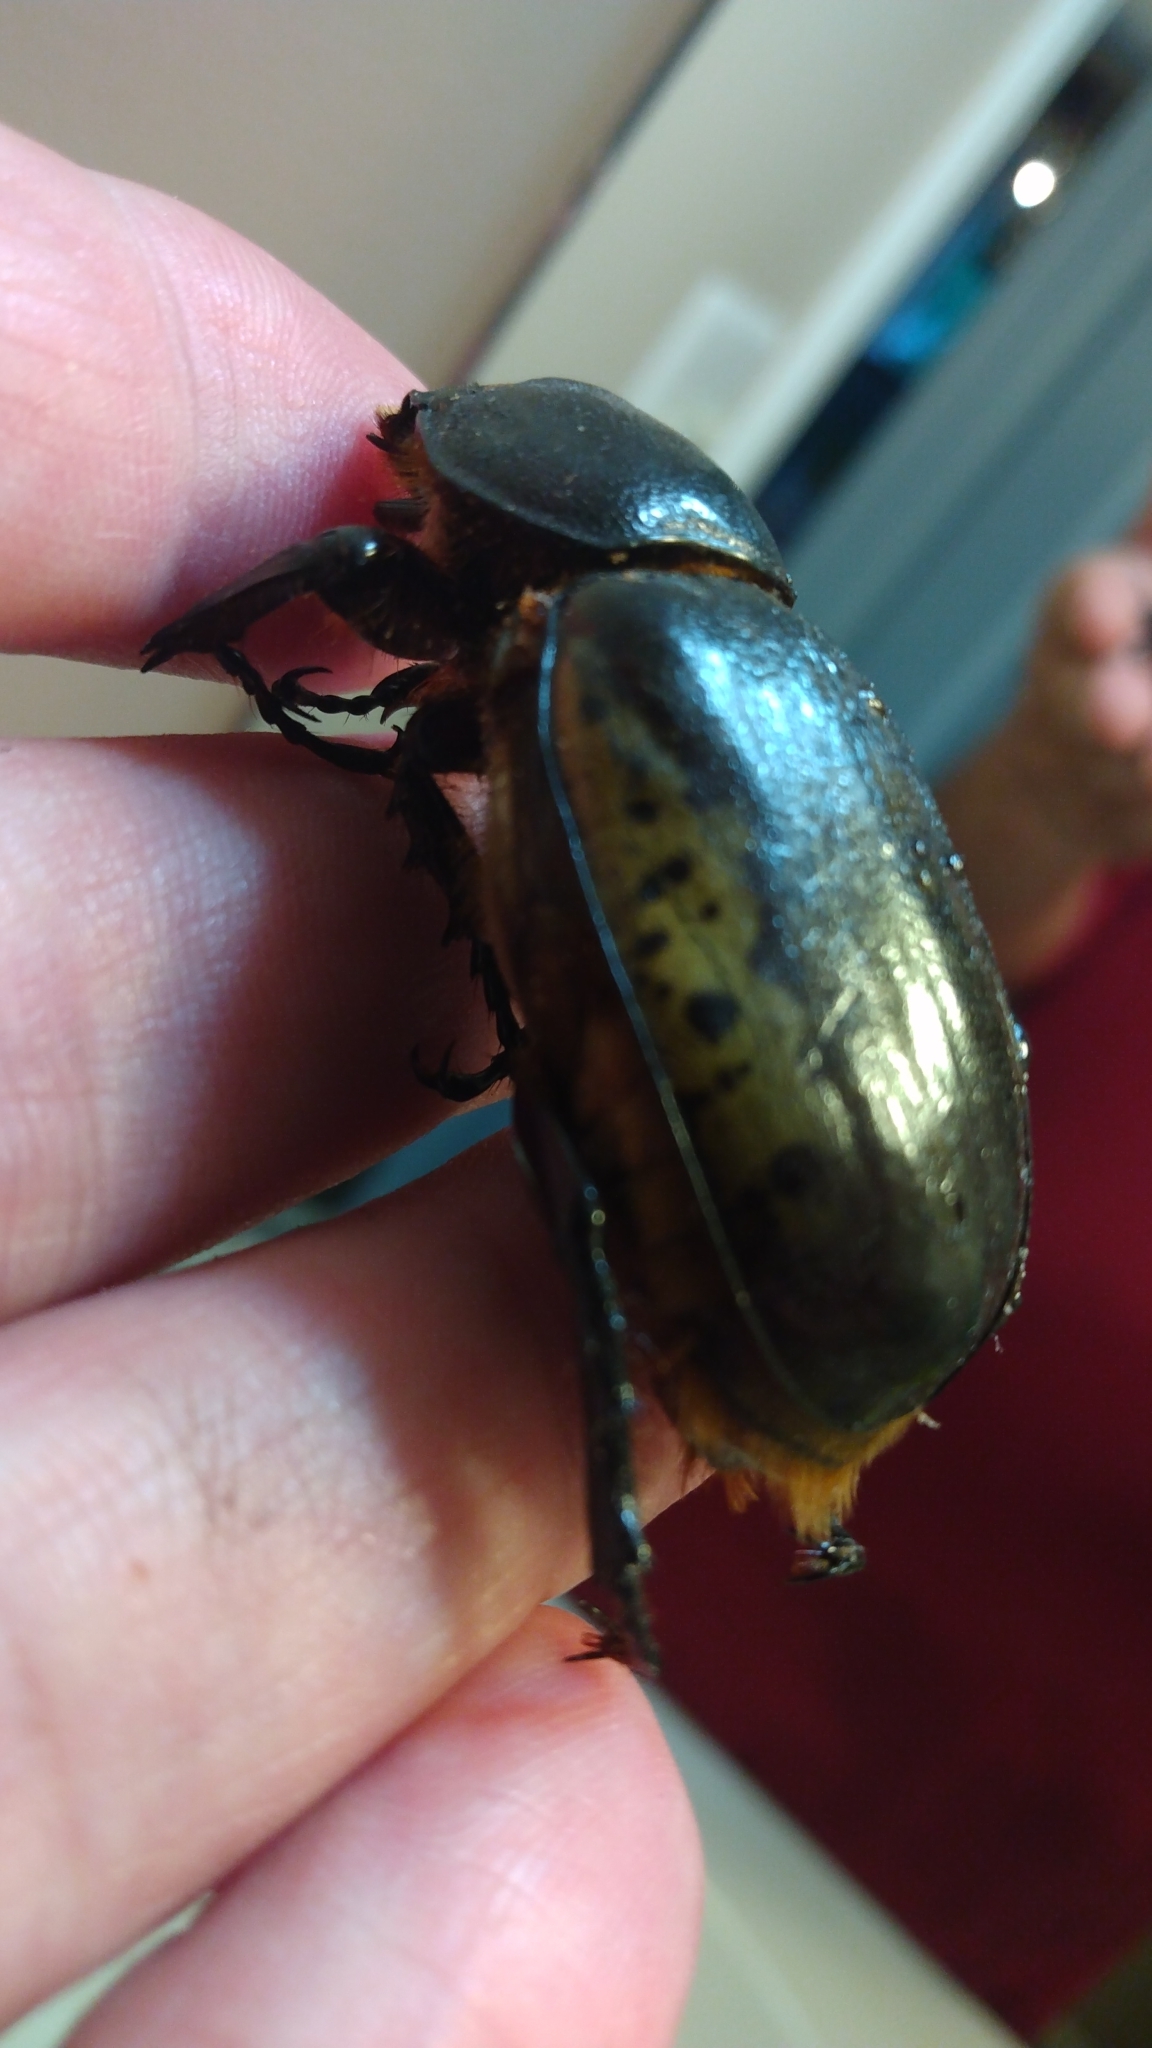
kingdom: Animalia
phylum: Arthropoda
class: Insecta
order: Coleoptera
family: Scarabaeidae
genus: Dynastes
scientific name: Dynastes tityus
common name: Eastern hercules beetle
